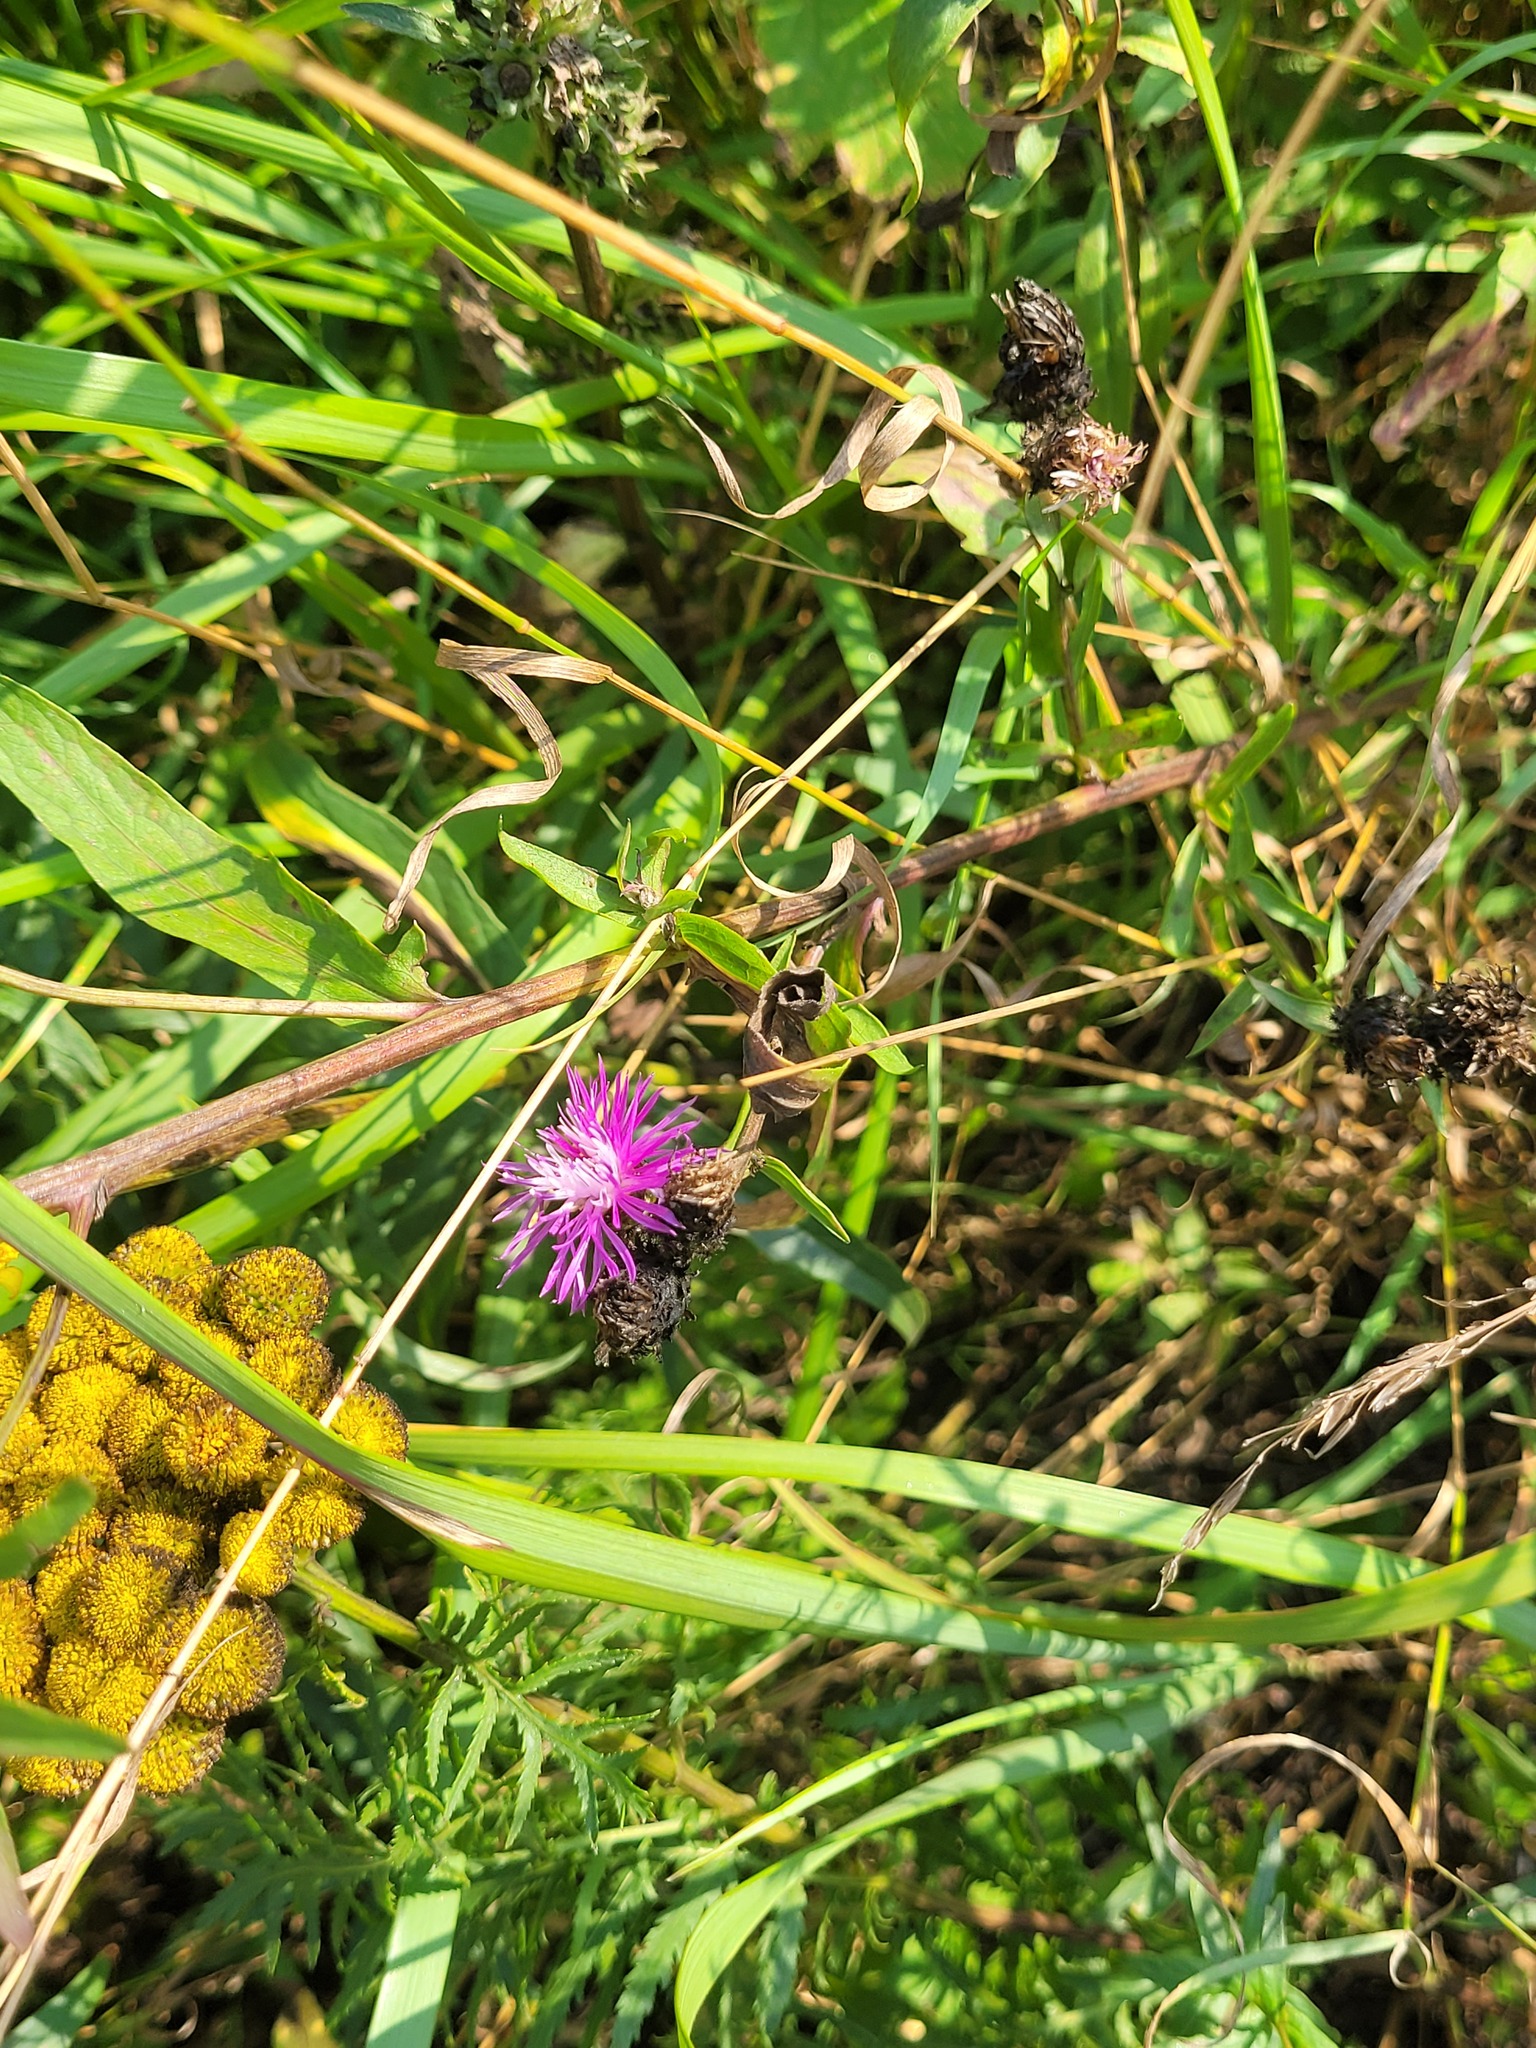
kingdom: Plantae
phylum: Tracheophyta
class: Magnoliopsida
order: Asterales
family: Asteraceae
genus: Centaurea
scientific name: Centaurea jacea
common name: Brown knapweed
